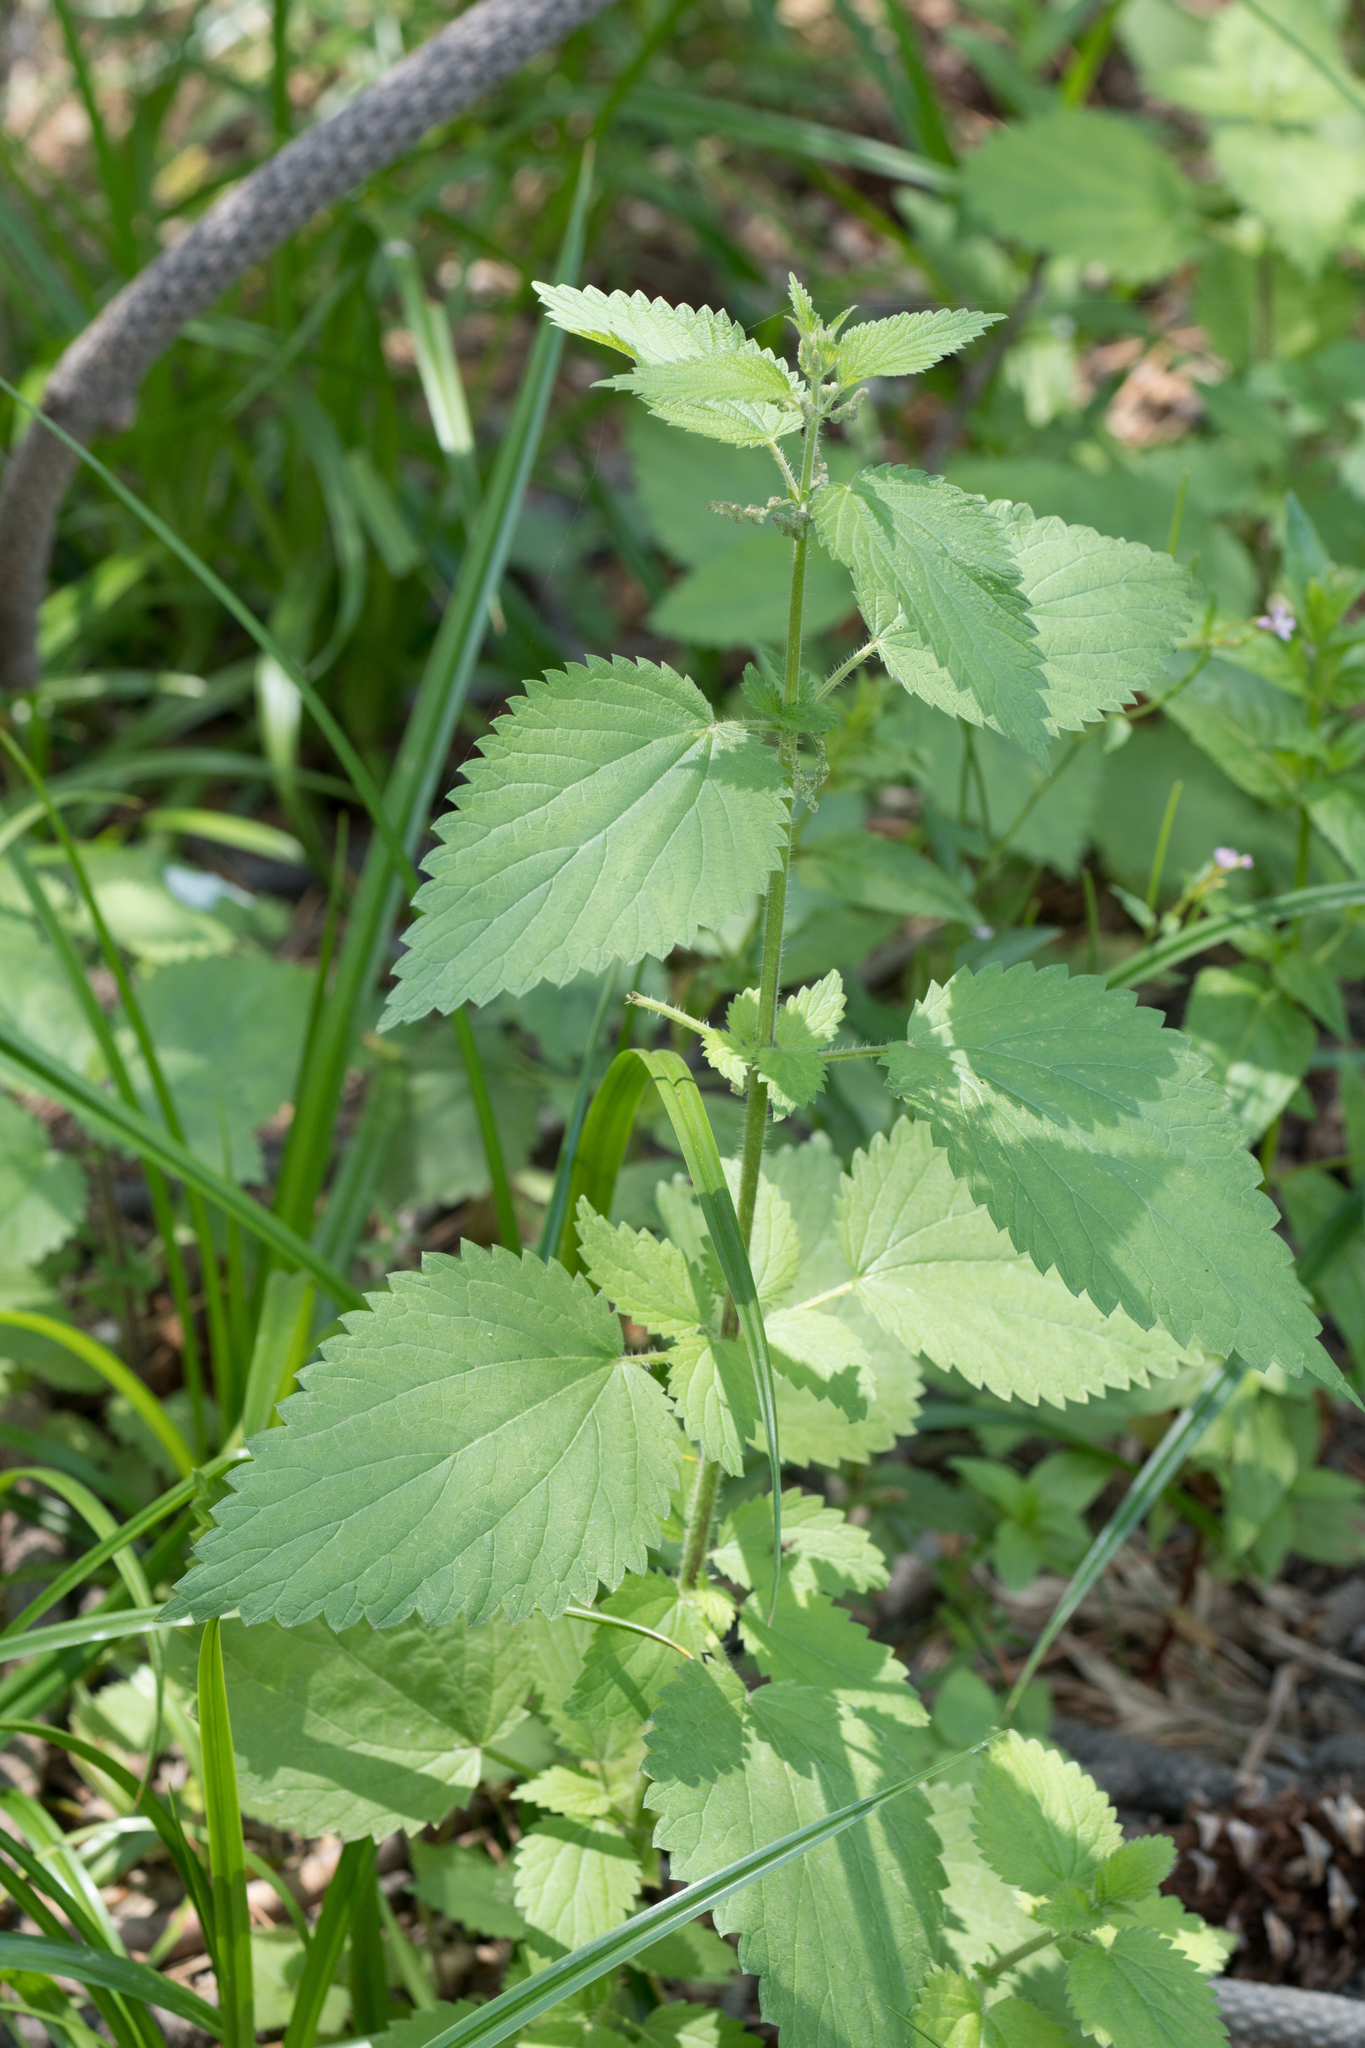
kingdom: Plantae
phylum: Tracheophyta
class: Magnoliopsida
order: Rosales
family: Urticaceae
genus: Urtica
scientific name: Urtica dioica
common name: Common nettle
